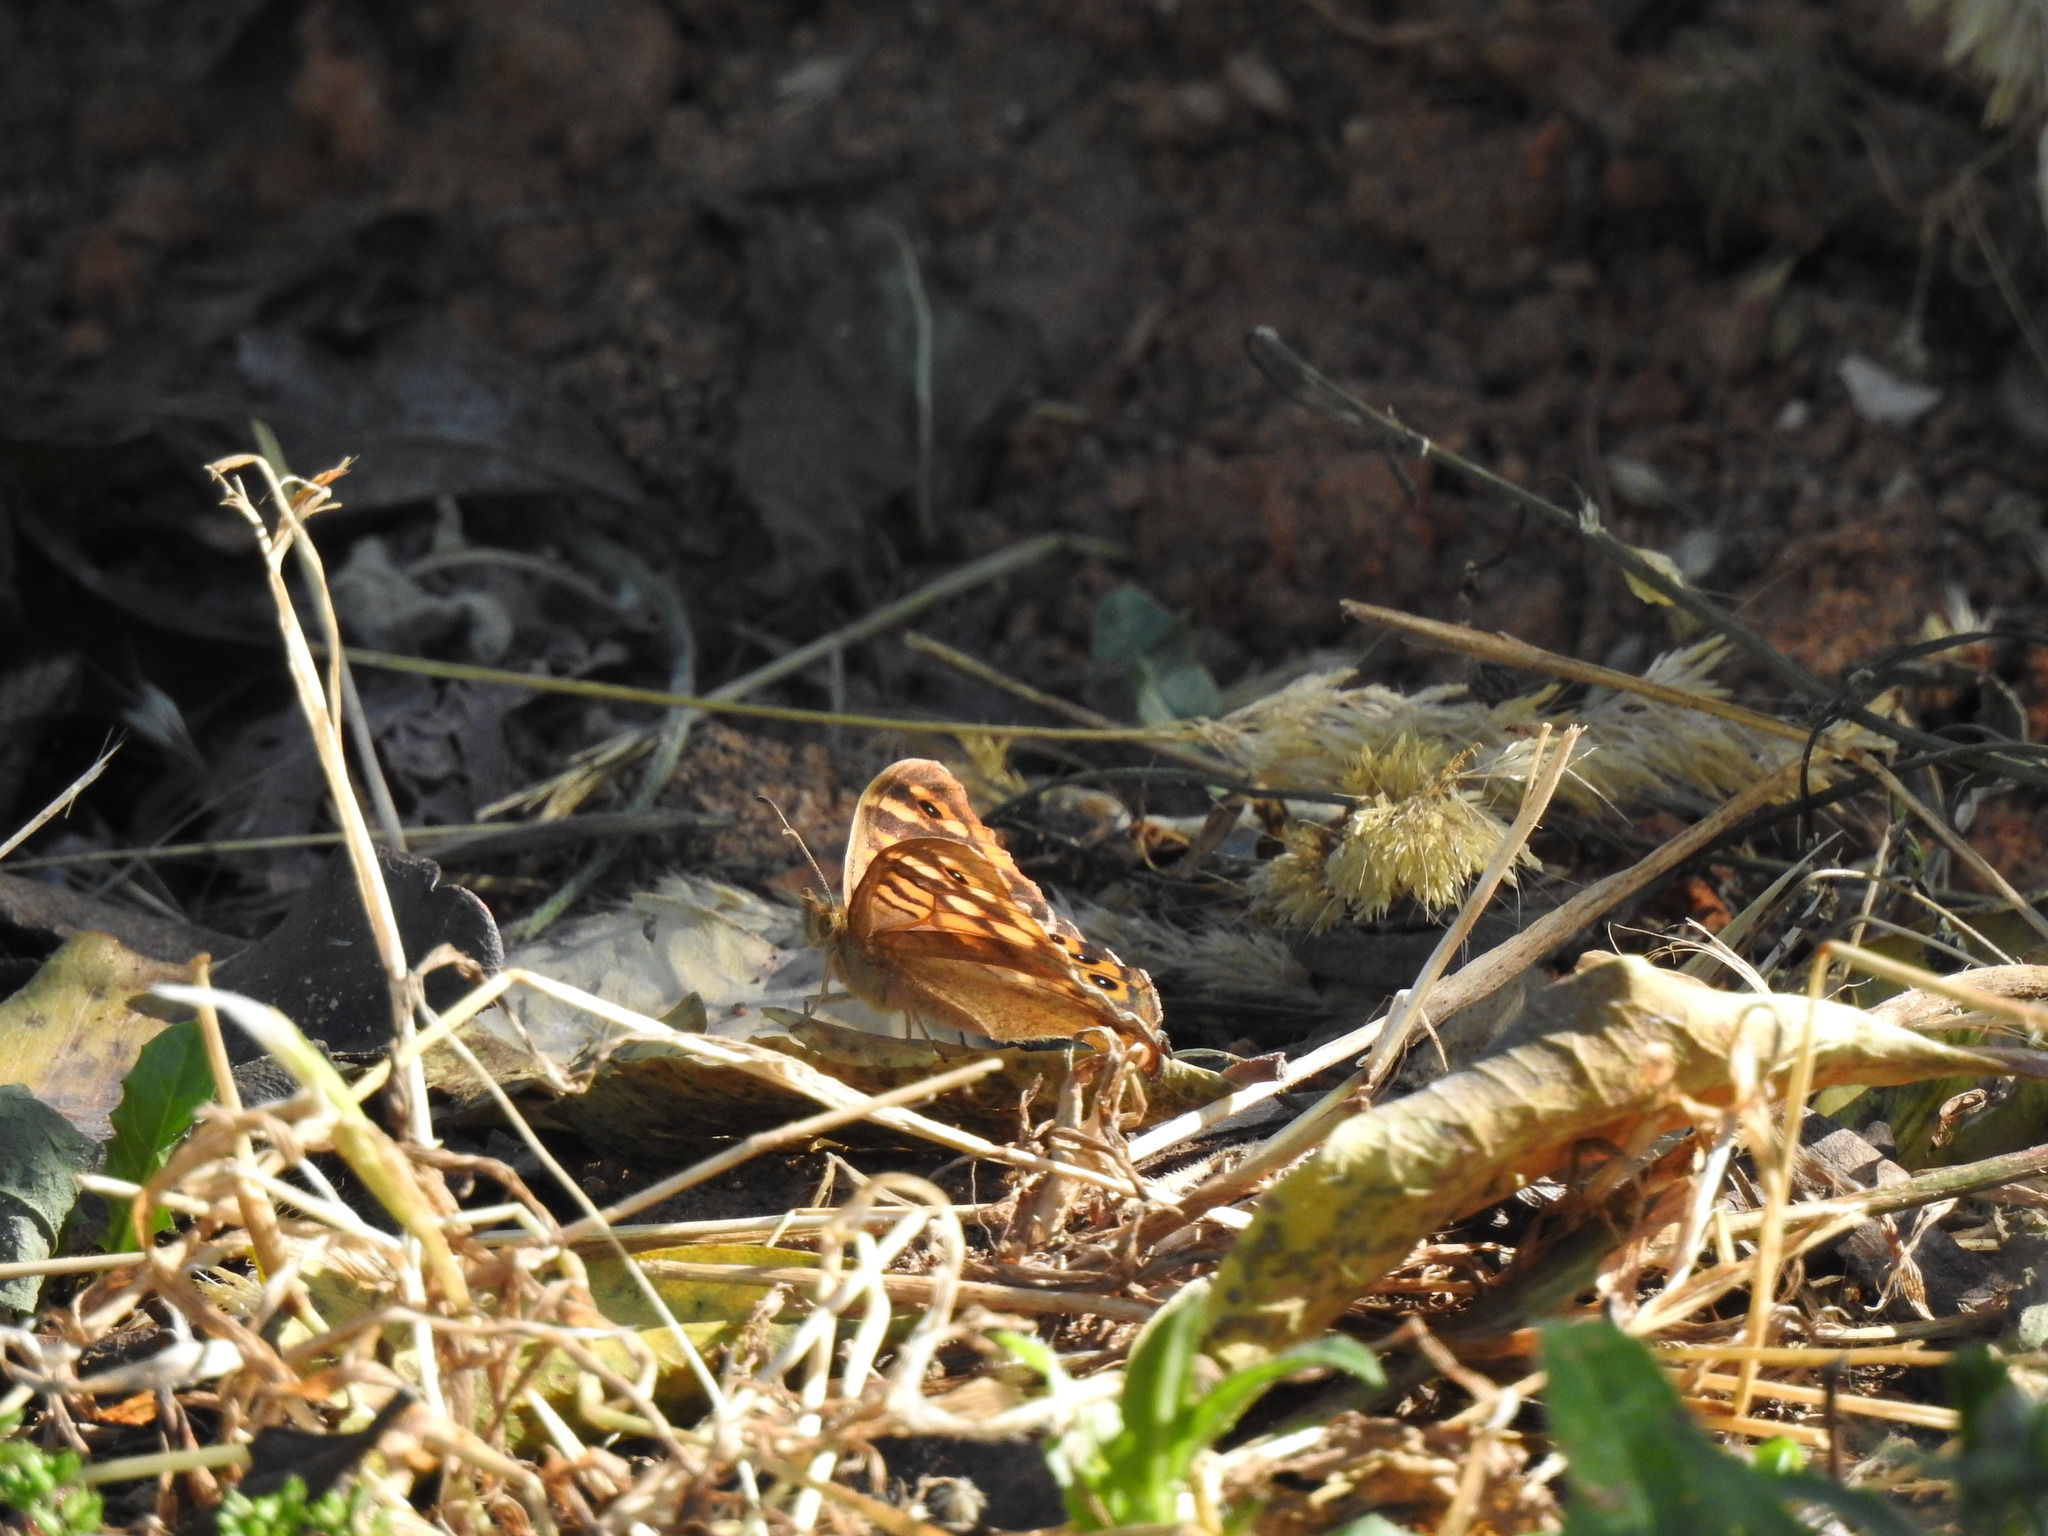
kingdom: Animalia
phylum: Arthropoda
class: Insecta
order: Lepidoptera
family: Nymphalidae
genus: Pararge
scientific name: Pararge aegeria
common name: Speckled wood
